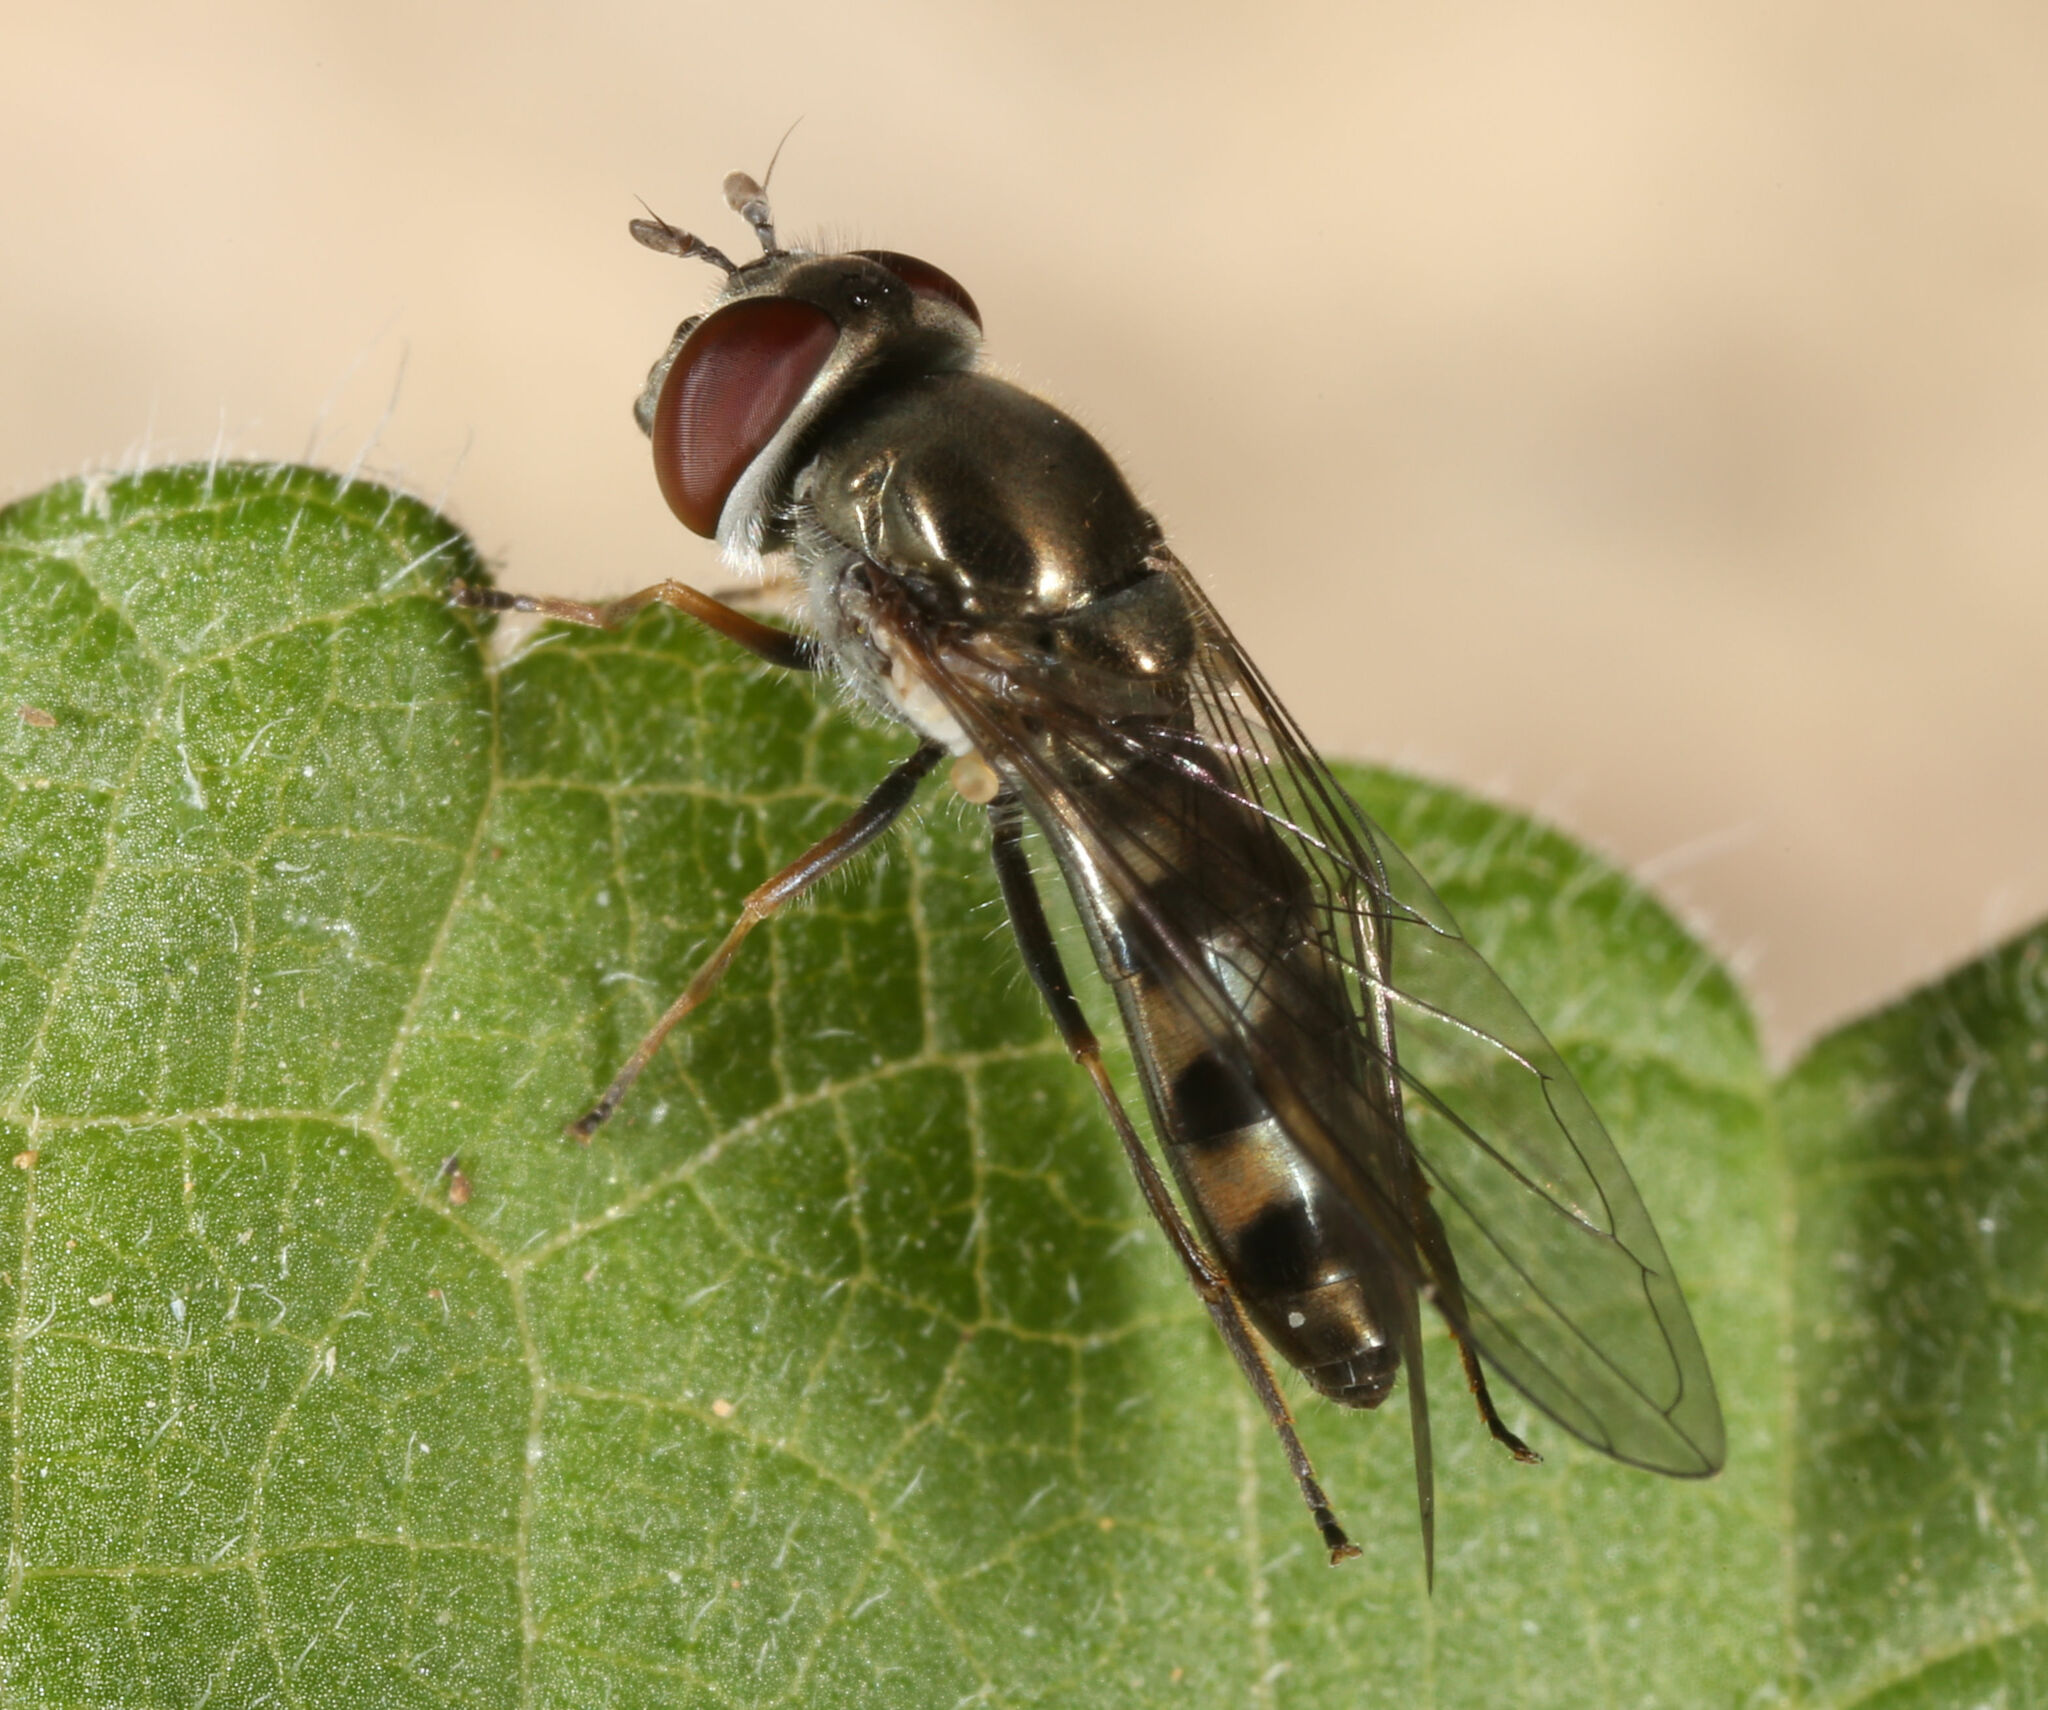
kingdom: Animalia
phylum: Arthropoda
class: Insecta
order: Diptera
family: Syrphidae
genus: Platycheirus
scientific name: Platycheirus trichopus
